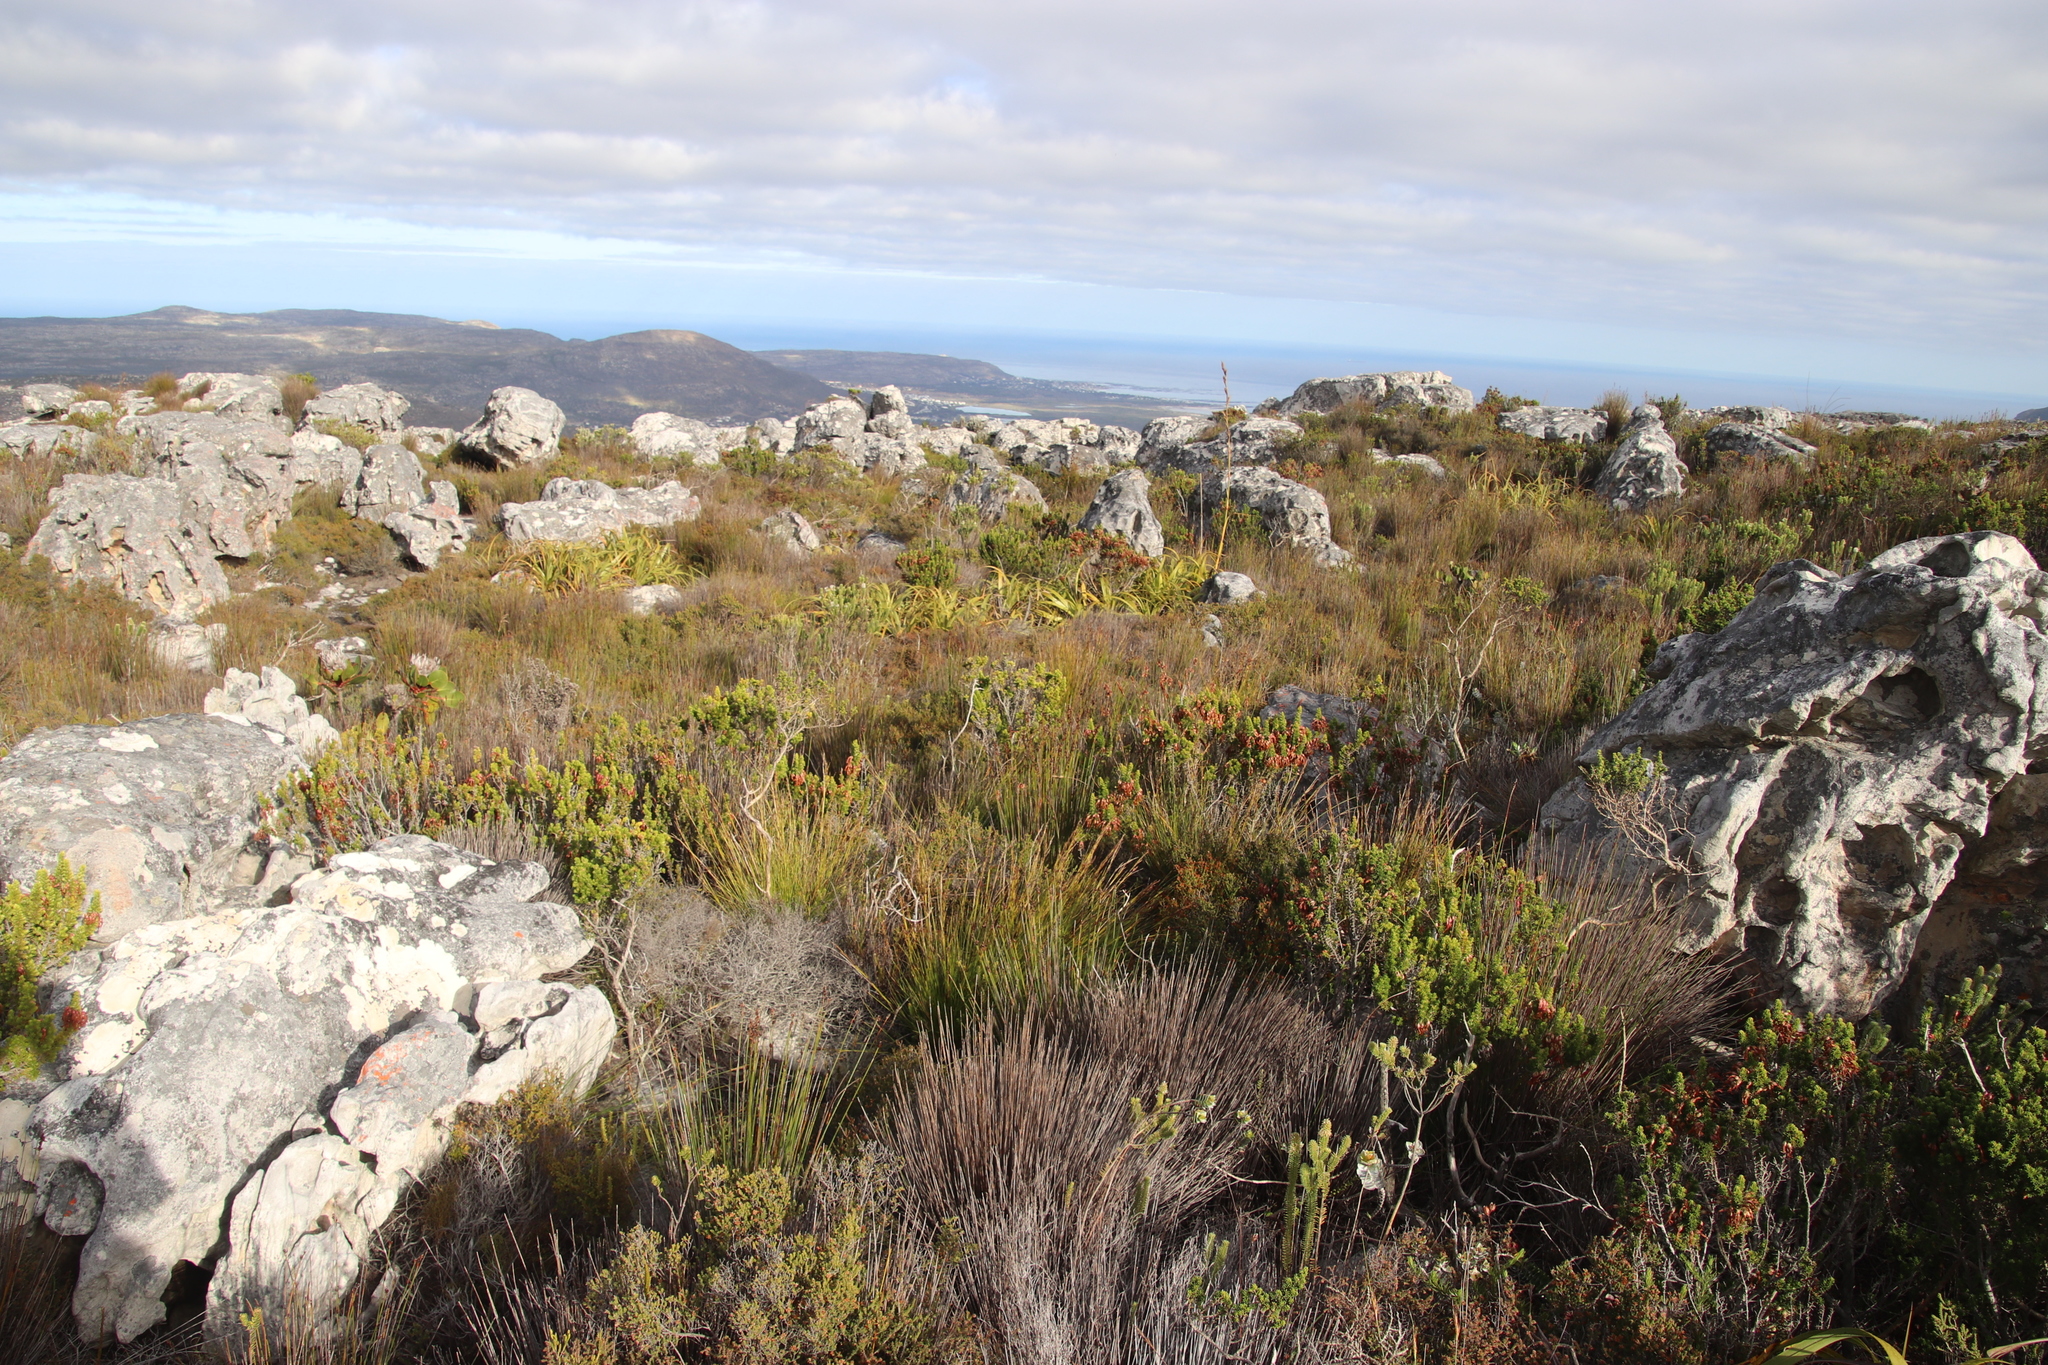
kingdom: Plantae
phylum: Tracheophyta
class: Magnoliopsida
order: Ericales
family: Ericaceae
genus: Erica
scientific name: Erica coccinea
